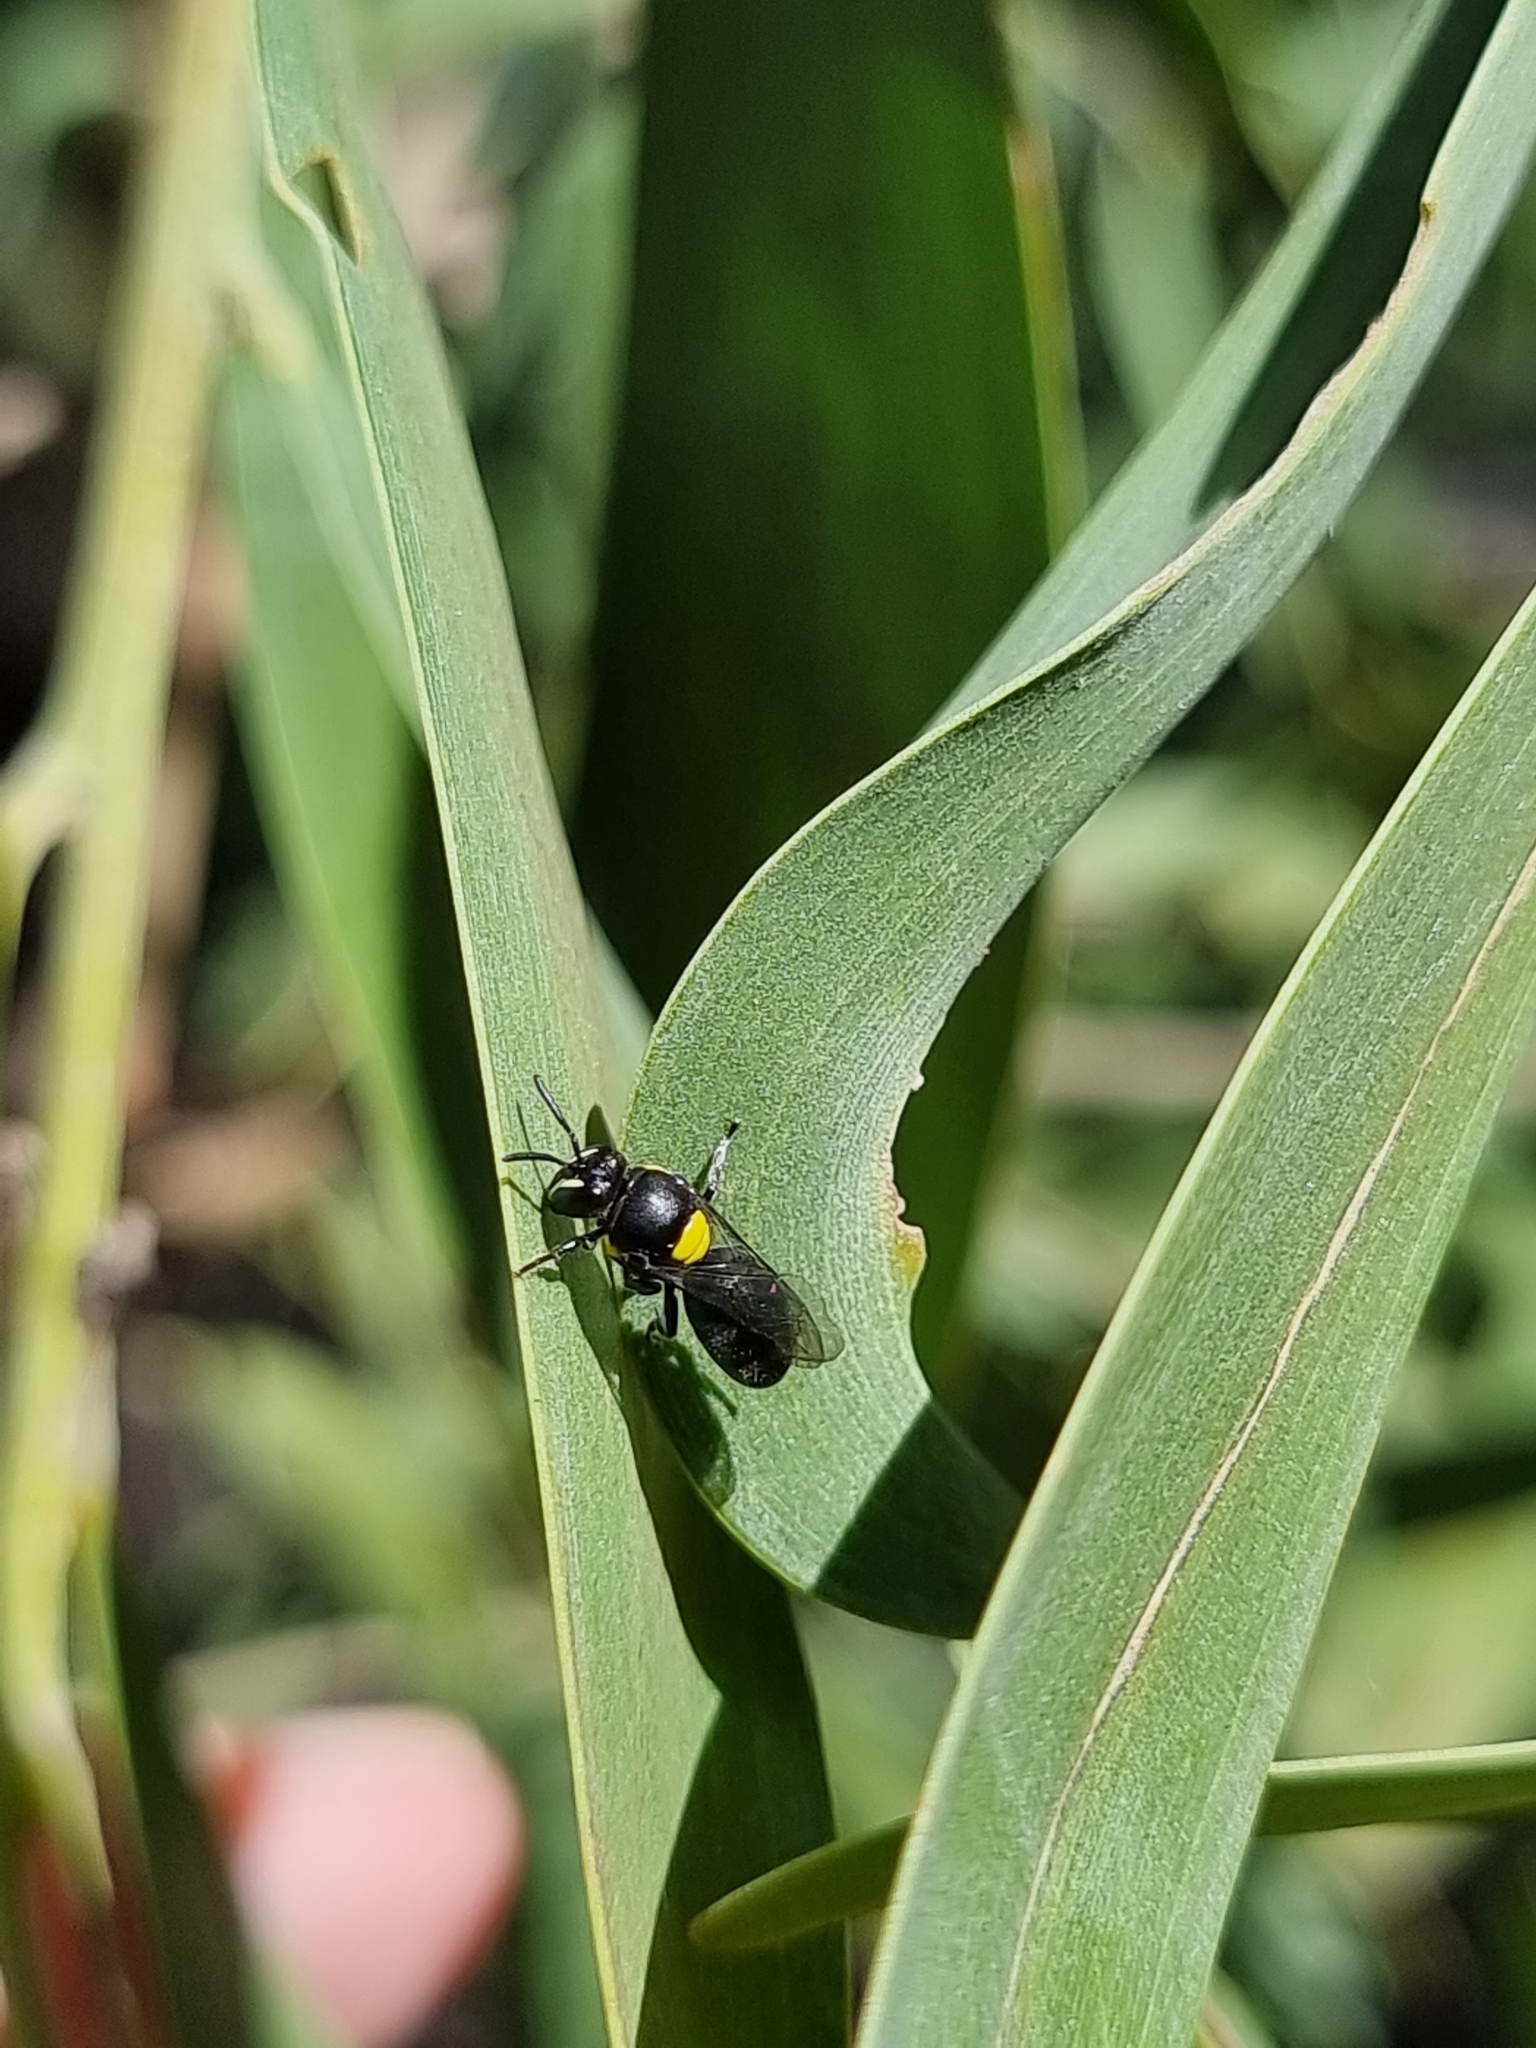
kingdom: Animalia
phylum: Arthropoda
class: Insecta
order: Hymenoptera
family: Colletidae
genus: Hylaeus
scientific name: Hylaeus nubilosus
